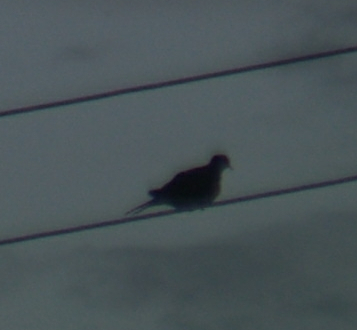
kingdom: Animalia
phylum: Chordata
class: Aves
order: Columbiformes
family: Columbidae
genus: Zenaida
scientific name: Zenaida macroura
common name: Mourning dove
